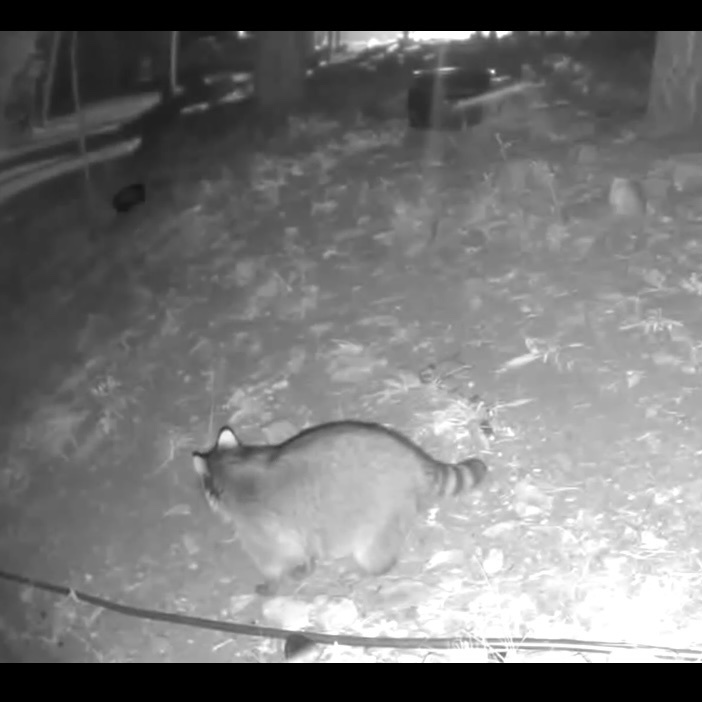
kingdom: Animalia
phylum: Chordata
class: Mammalia
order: Carnivora
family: Procyonidae
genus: Procyon
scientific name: Procyon lotor
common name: Raccoon
